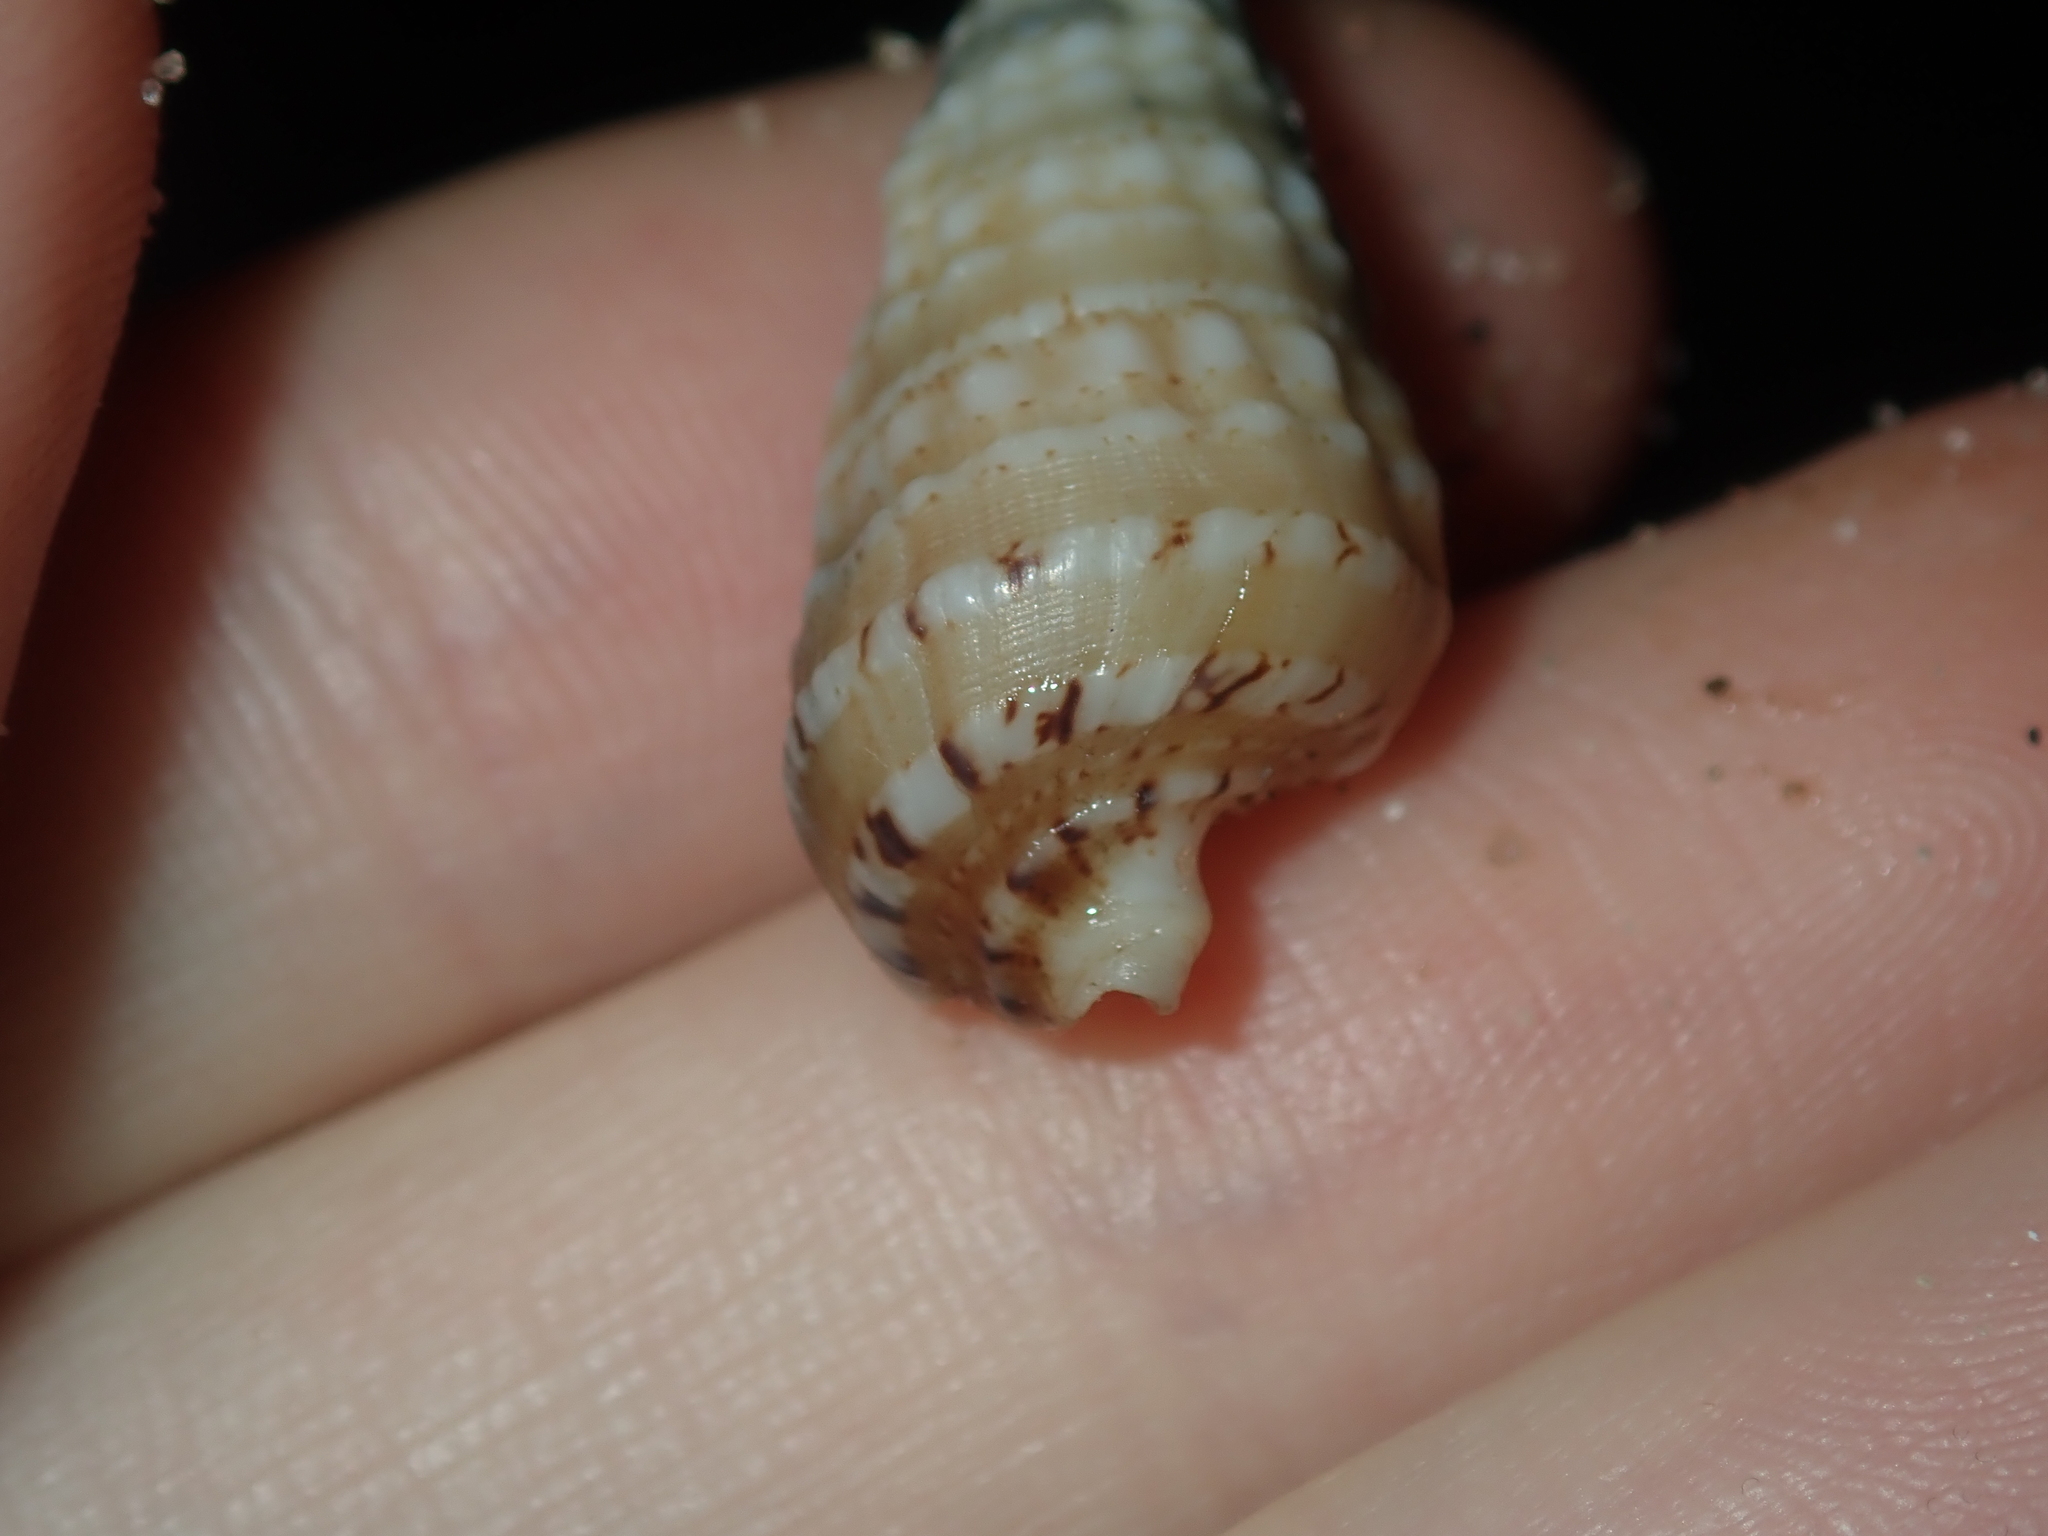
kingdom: Animalia
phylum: Mollusca
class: Gastropoda
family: Cerithiidae
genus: Rhinoclavis
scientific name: Rhinoclavis bituberculata
